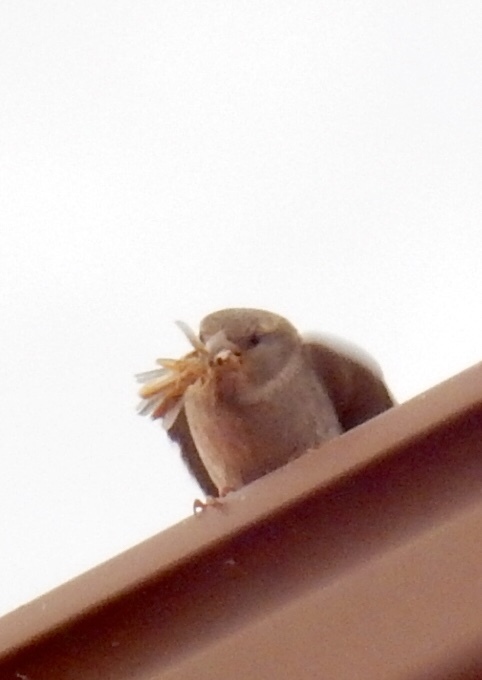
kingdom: Animalia
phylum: Chordata
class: Aves
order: Passeriformes
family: Passeridae
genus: Passer
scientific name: Passer domesticus
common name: House sparrow
